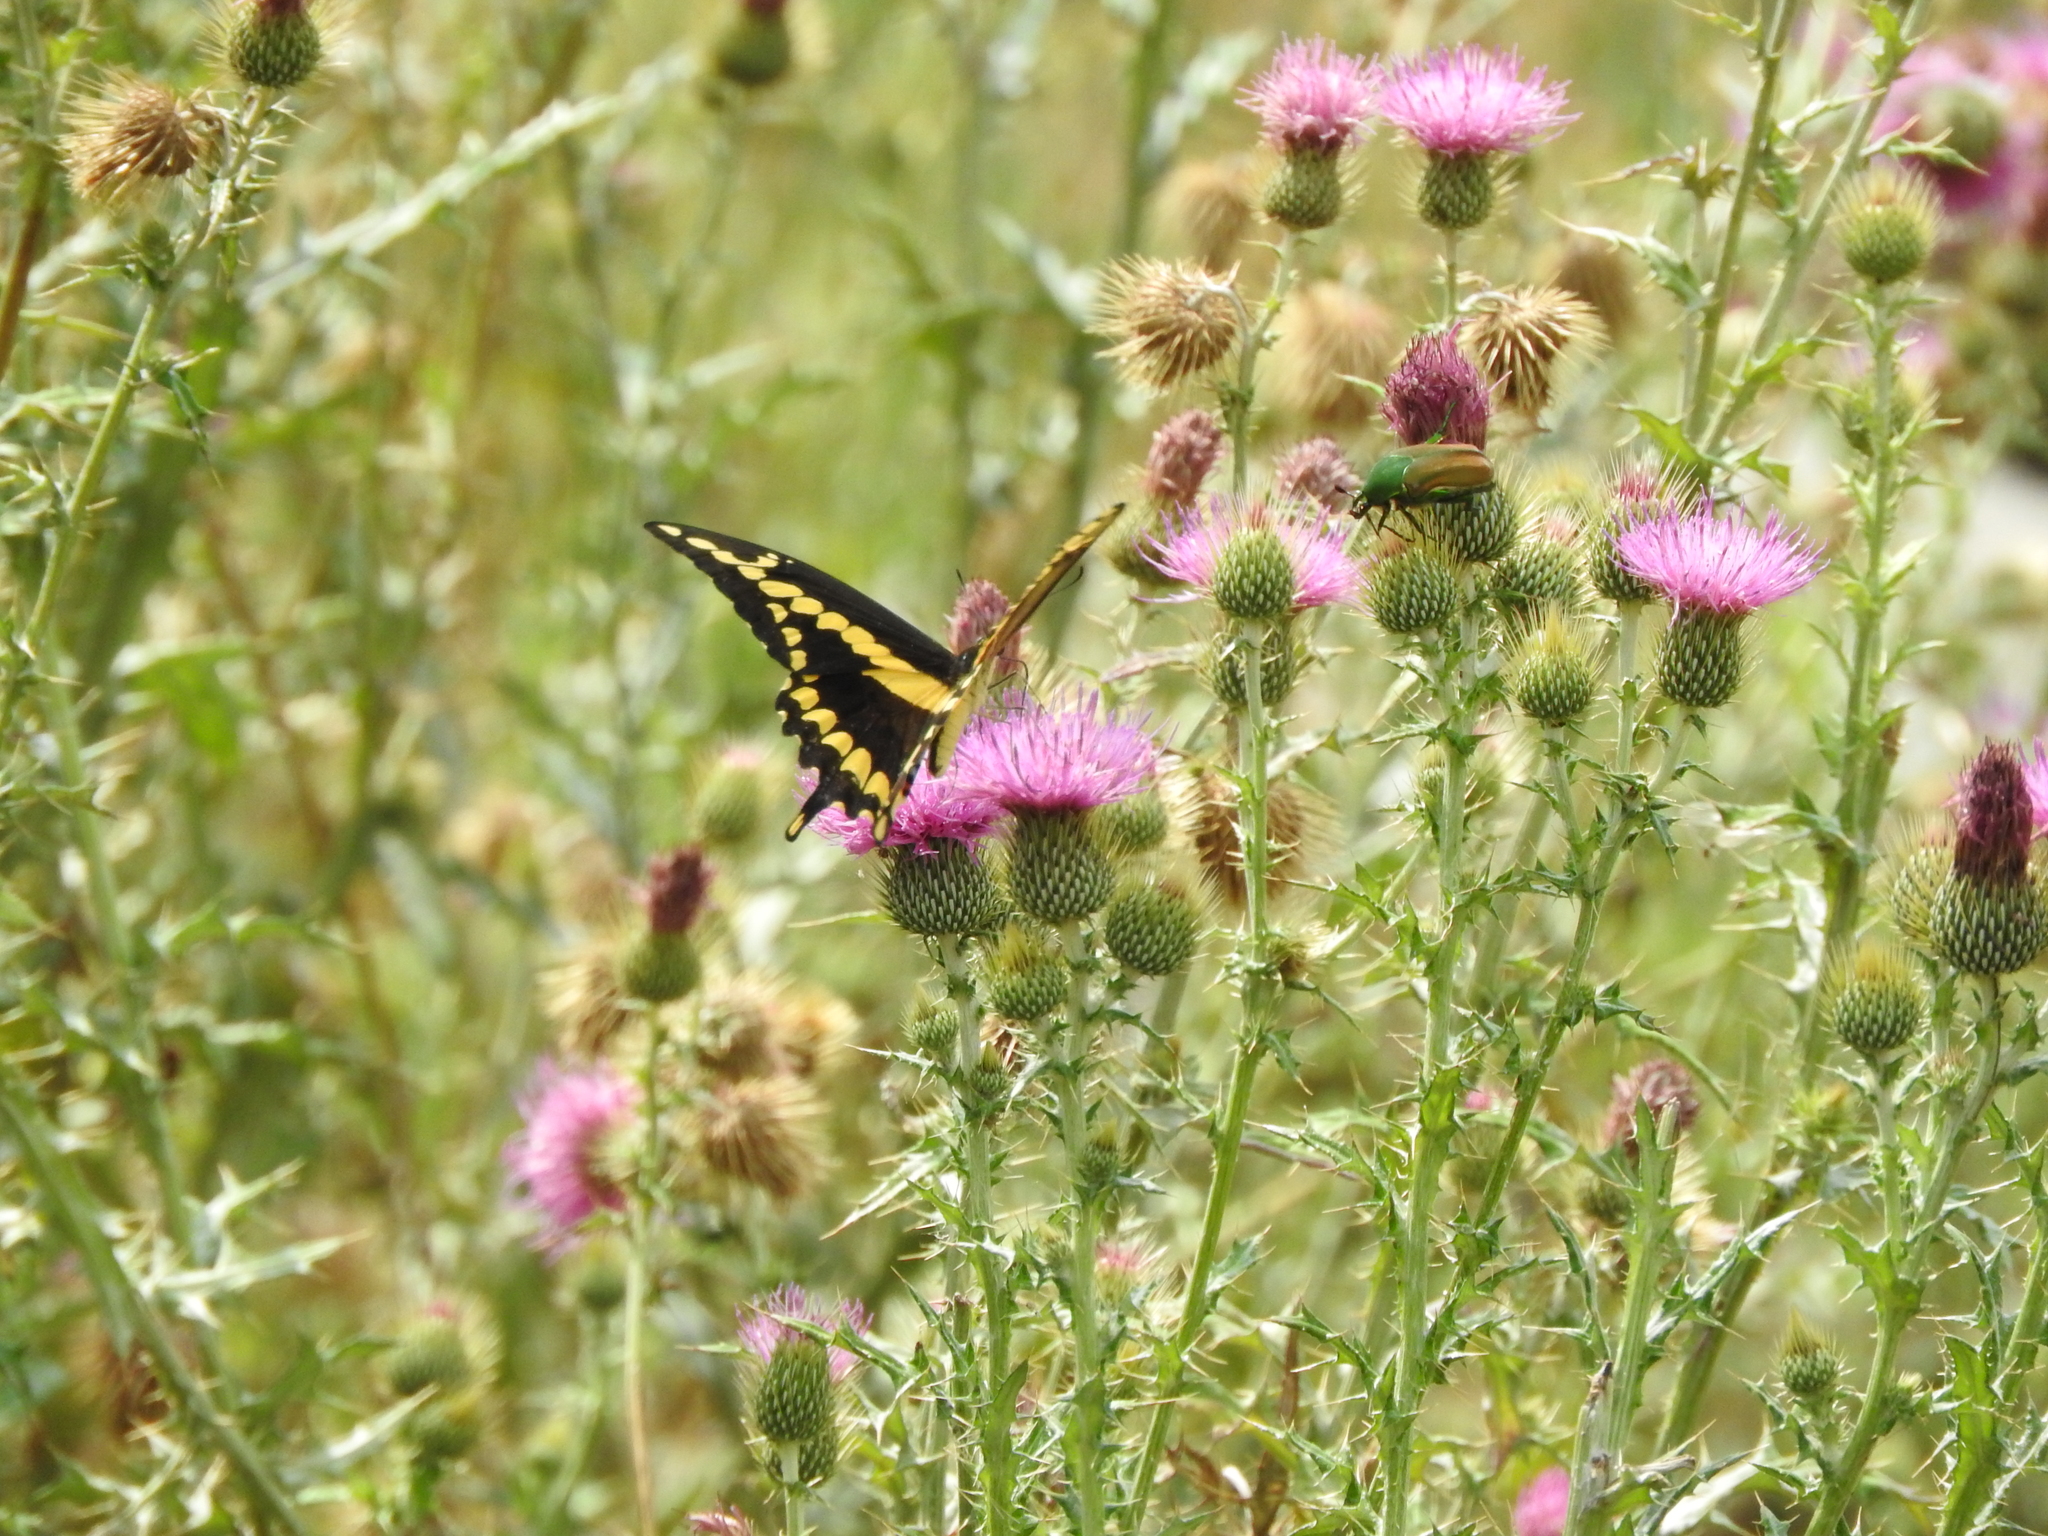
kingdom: Animalia
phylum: Arthropoda
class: Insecta
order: Coleoptera
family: Scarabaeidae
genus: Cotinis
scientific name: Cotinis mutabilis
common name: Figeater beetle
